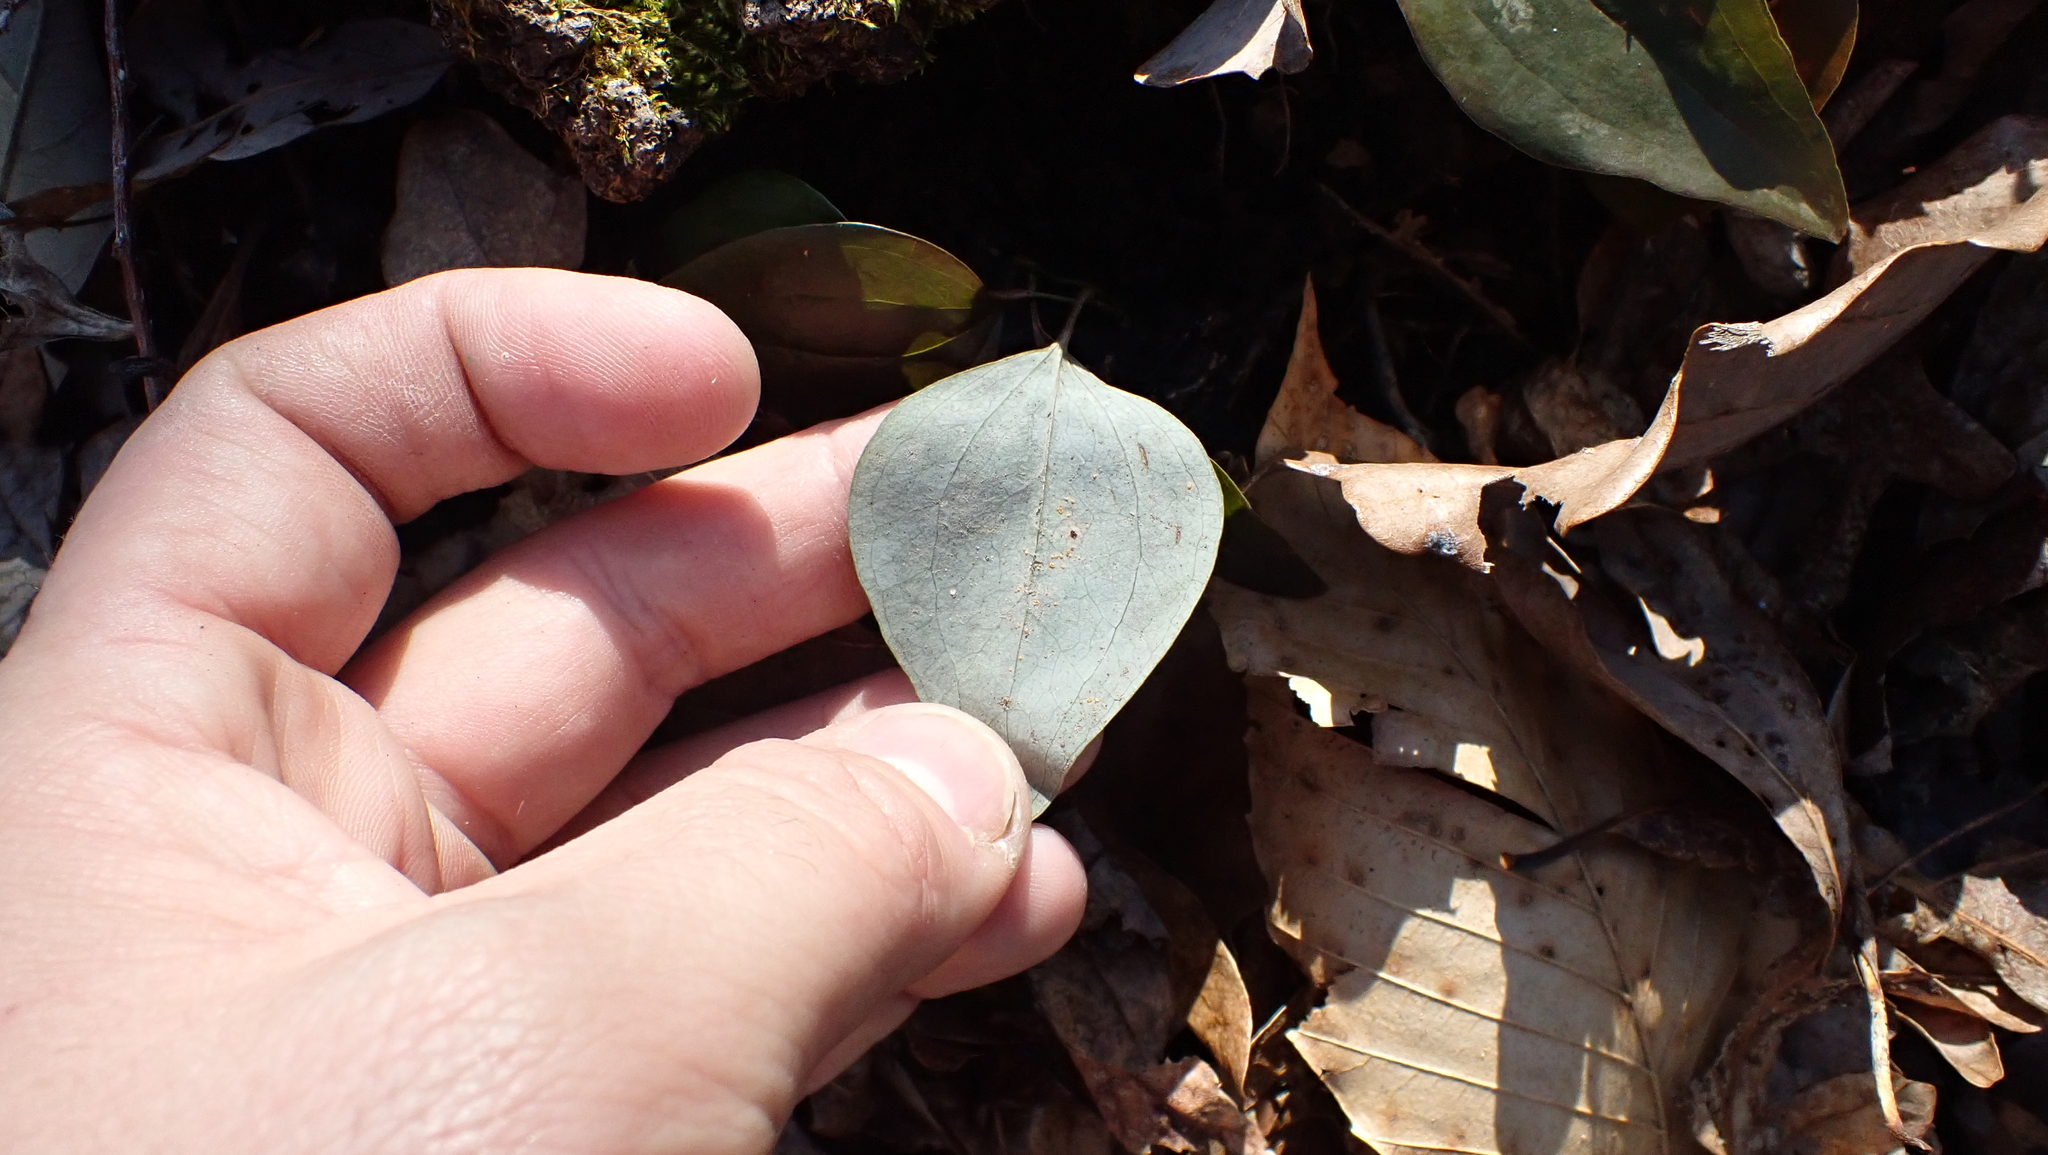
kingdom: Plantae
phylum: Tracheophyta
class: Liliopsida
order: Liliales
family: Smilacaceae
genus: Smilax
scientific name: Smilax glauca
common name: Cat greenbrier
